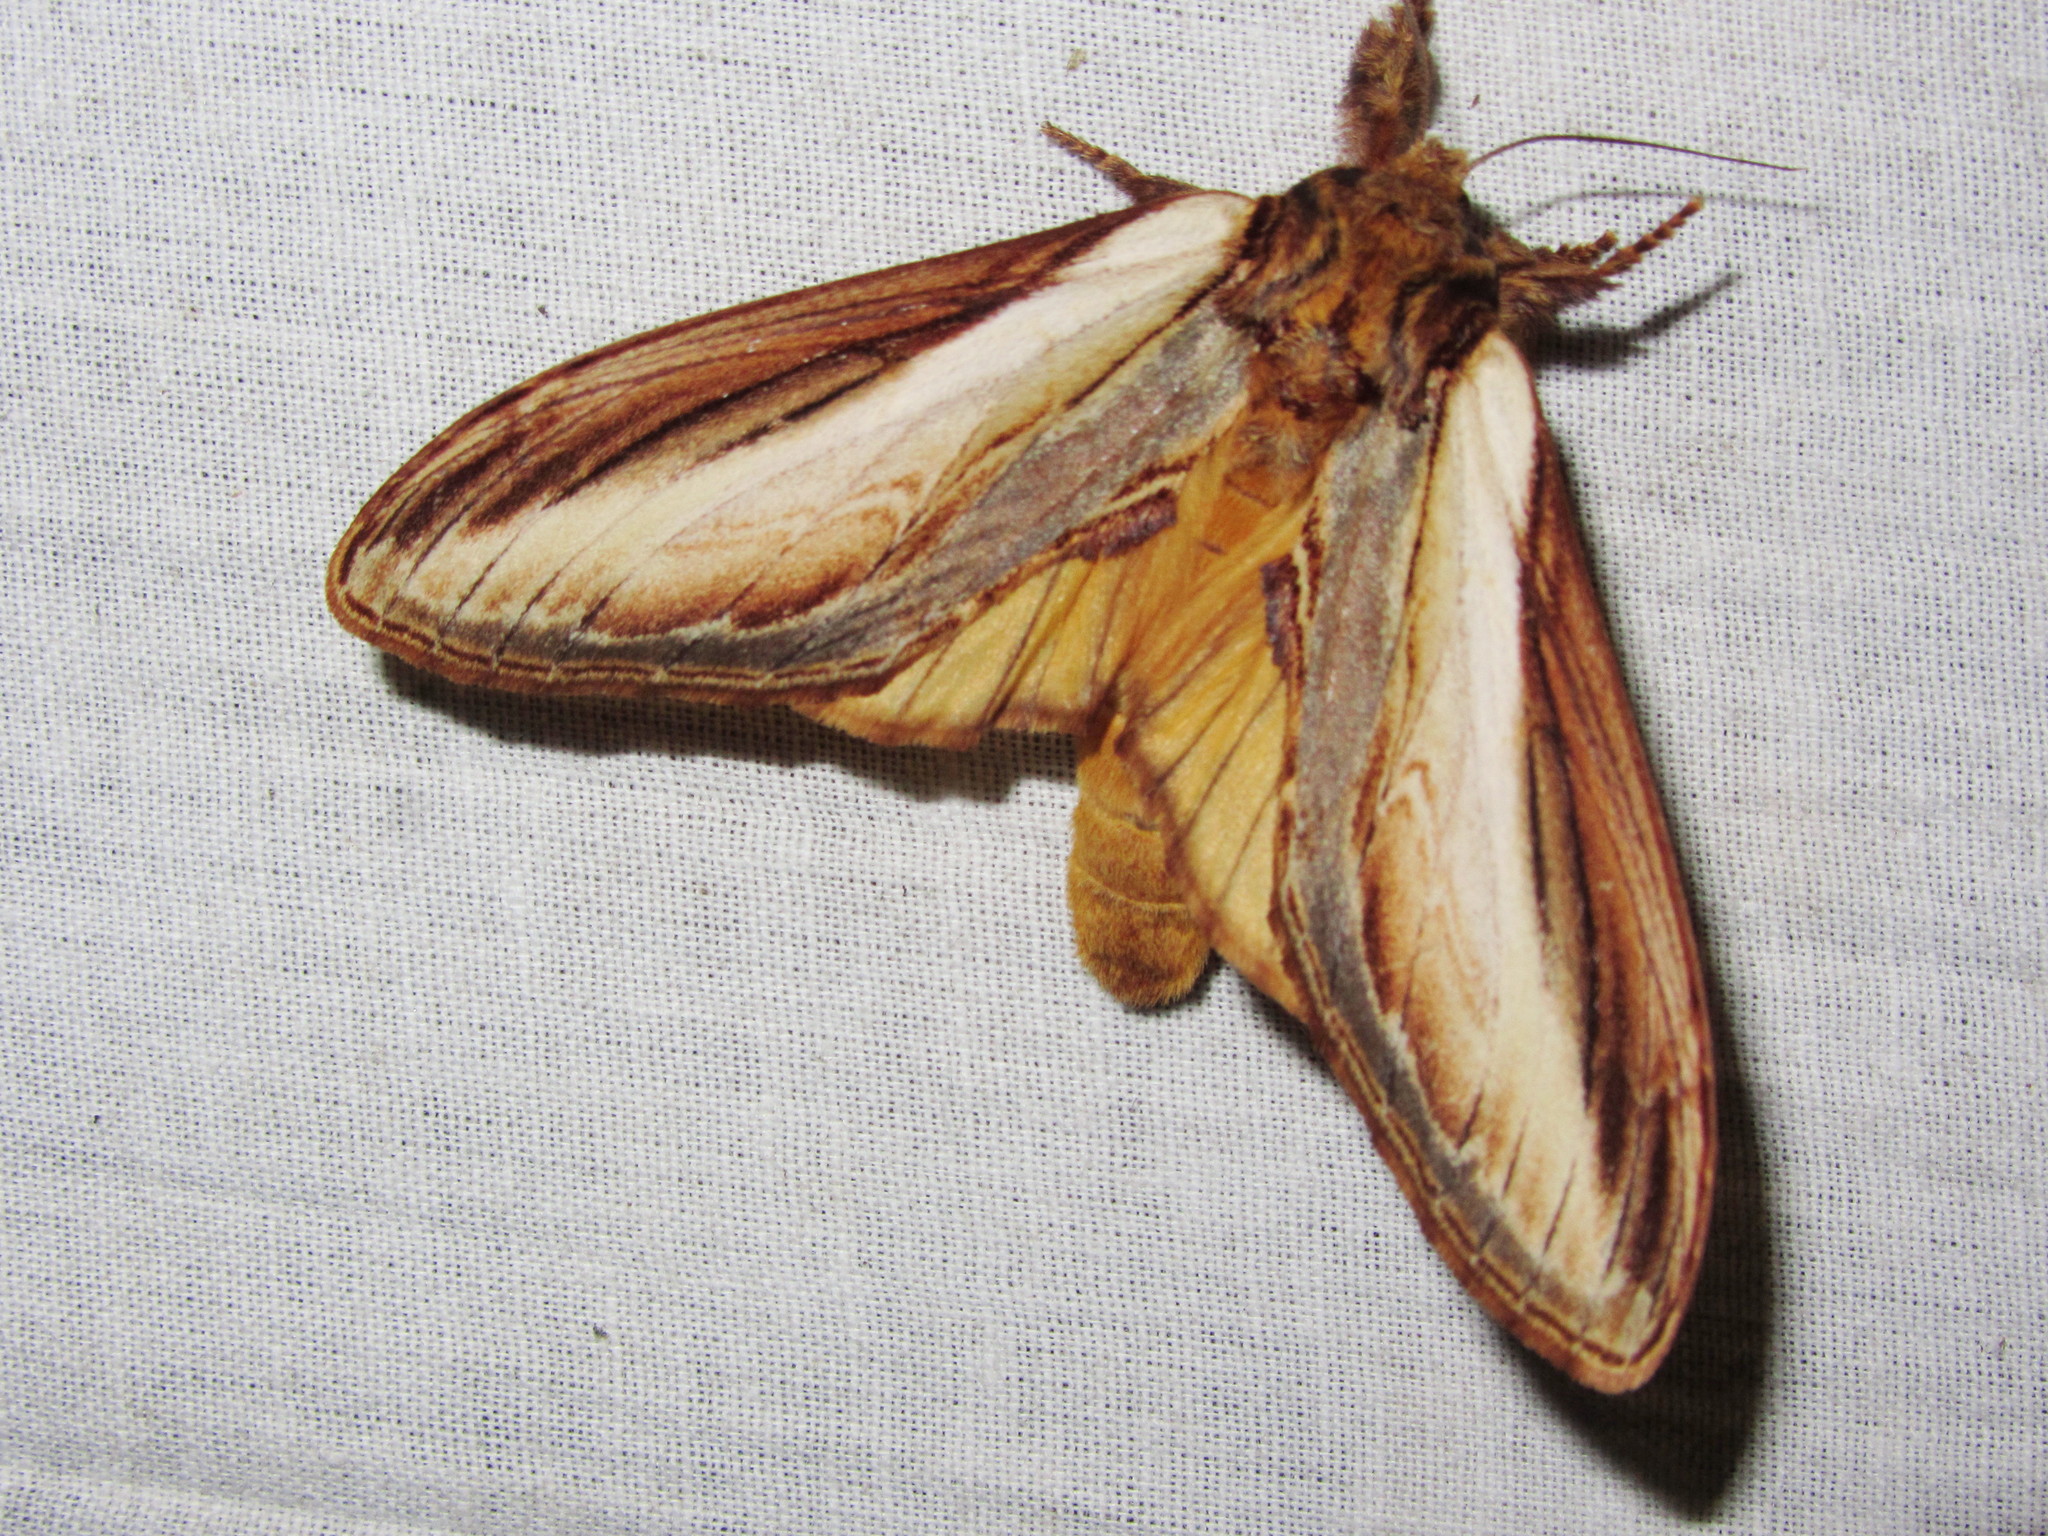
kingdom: Animalia
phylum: Arthropoda
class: Insecta
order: Lepidoptera
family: Notodontidae
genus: Acmeshachia
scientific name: Acmeshachia albifascia
